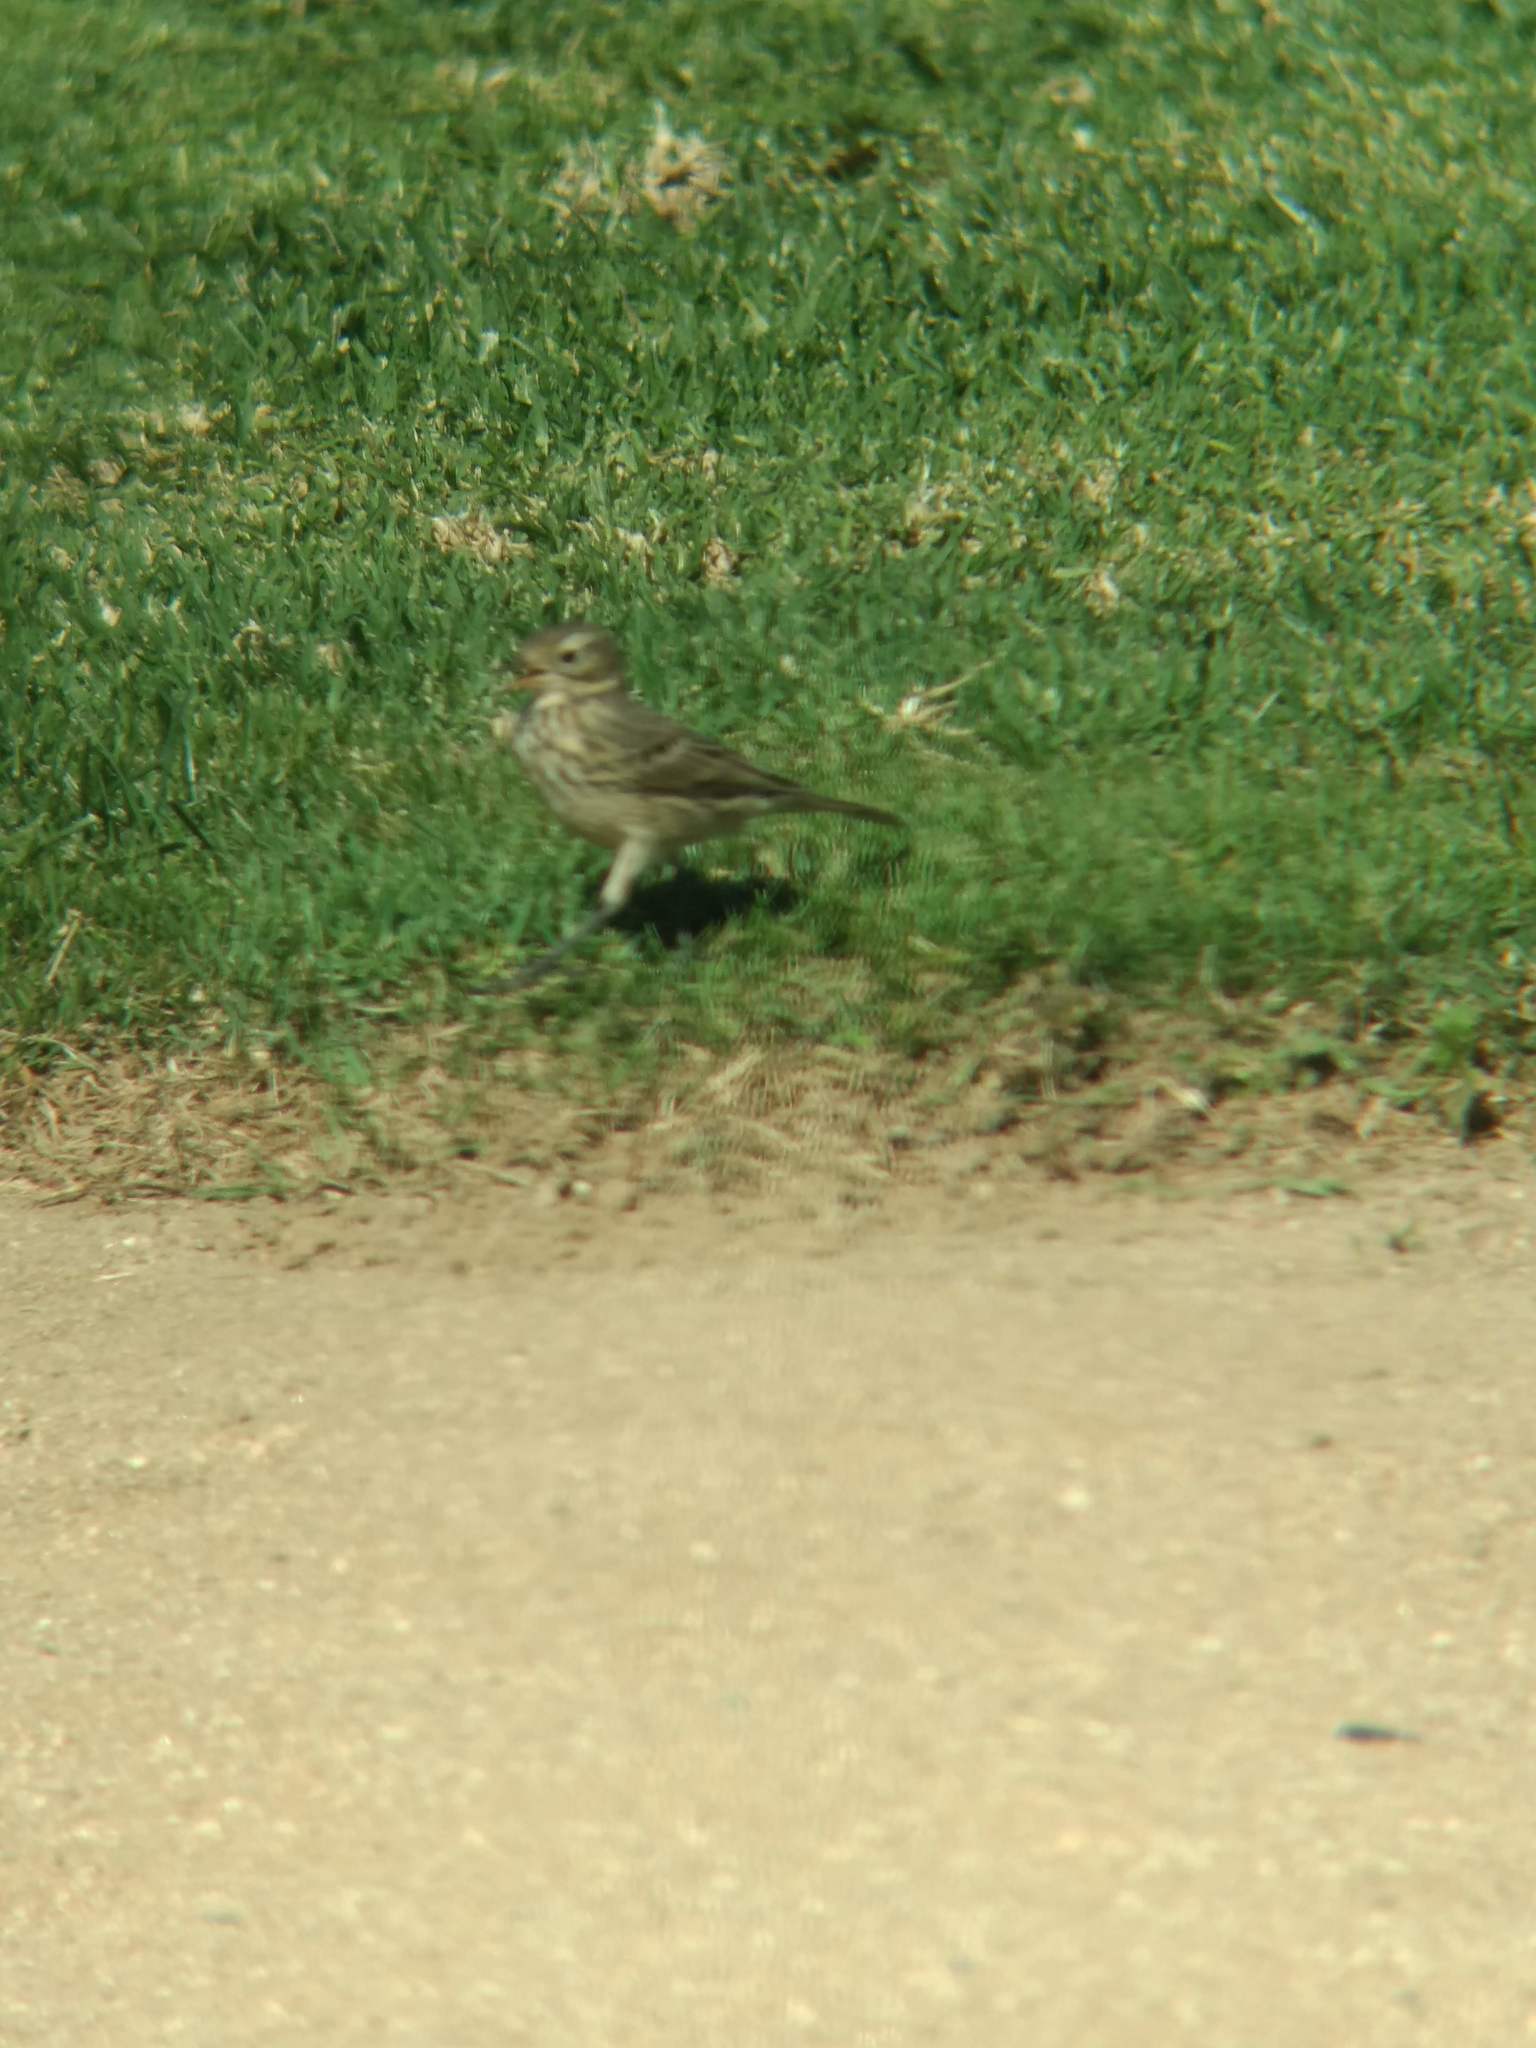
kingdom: Animalia
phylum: Chordata
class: Aves
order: Passeriformes
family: Motacillidae
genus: Anthus
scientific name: Anthus rubescens
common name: Buff-bellied pipit
